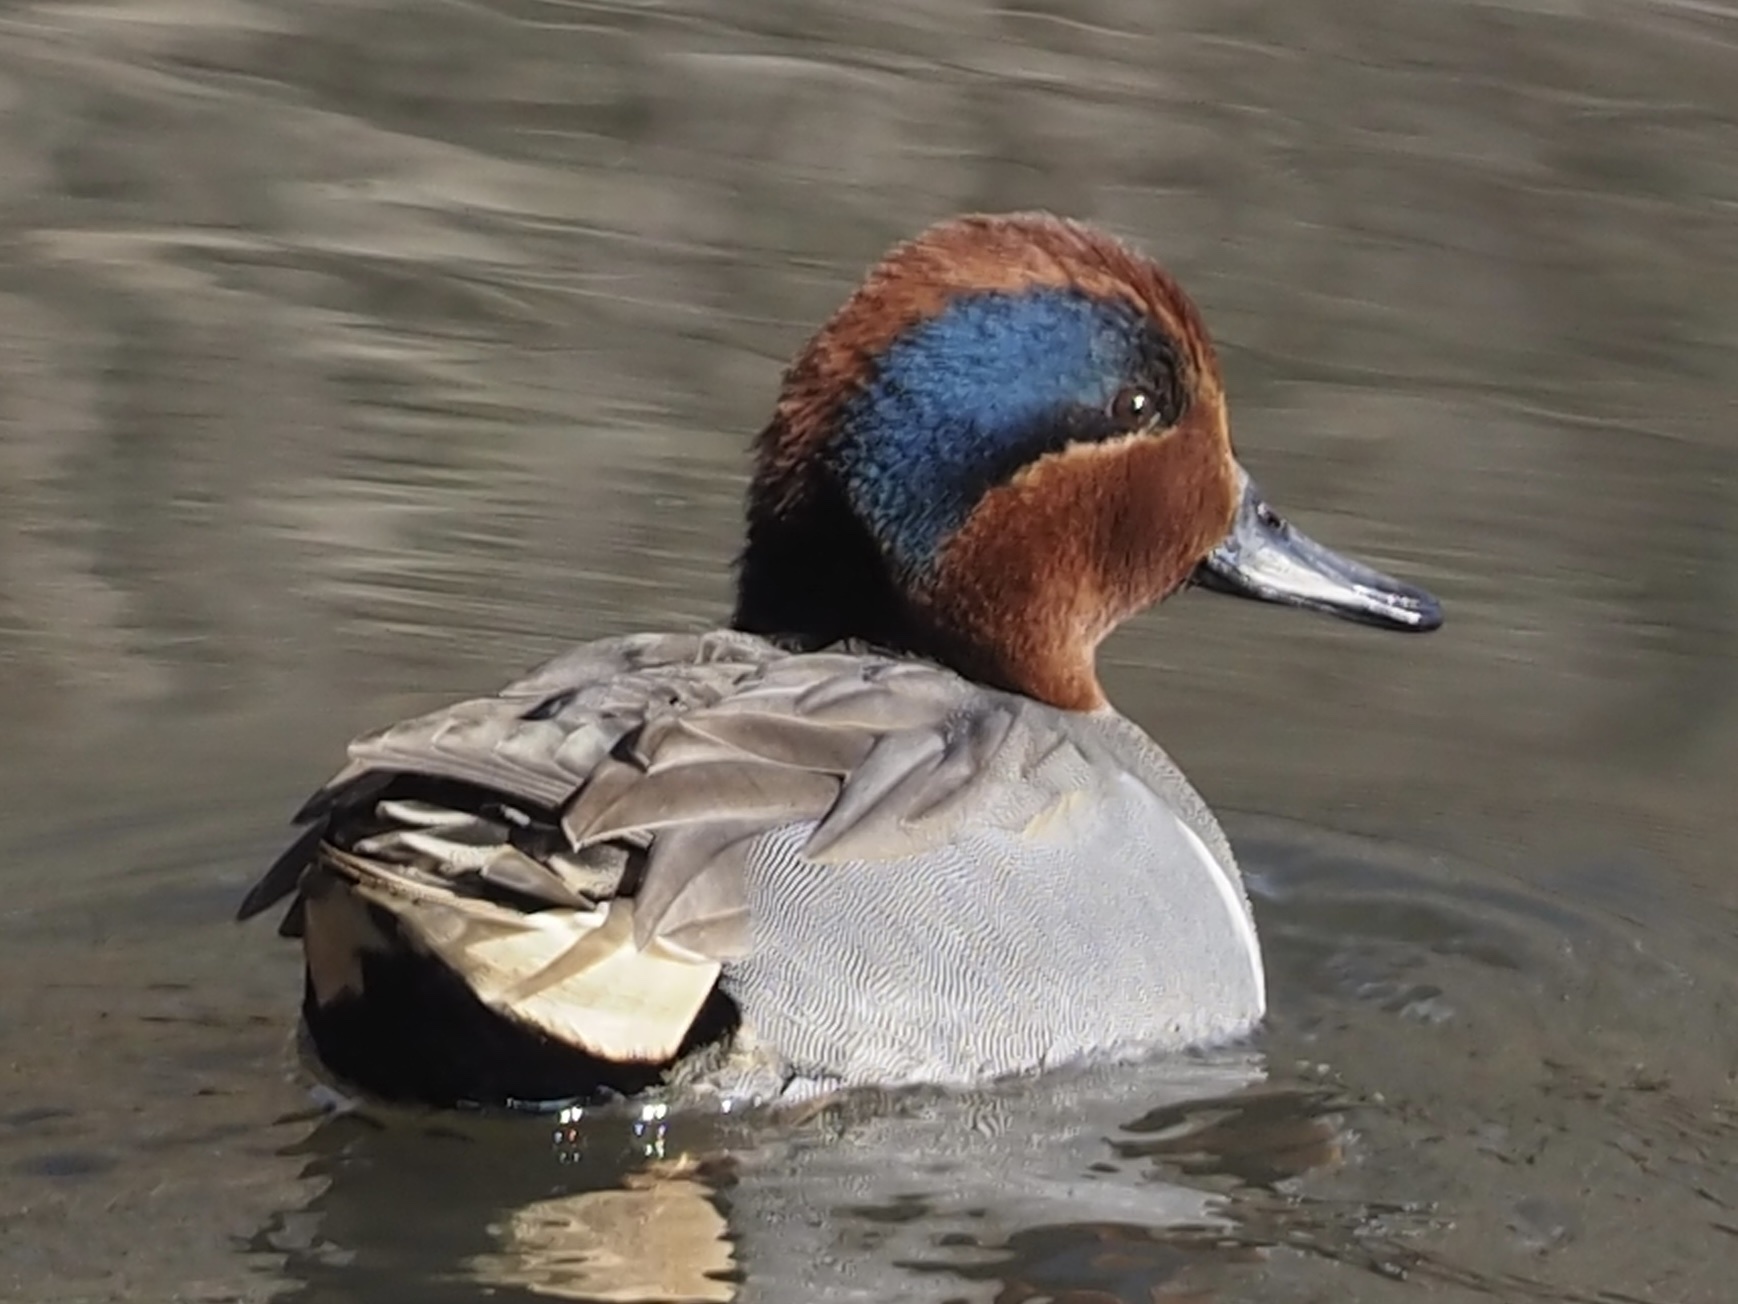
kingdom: Animalia
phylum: Chordata
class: Aves
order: Anseriformes
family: Anatidae
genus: Anas
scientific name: Anas crecca
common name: Eurasian teal
